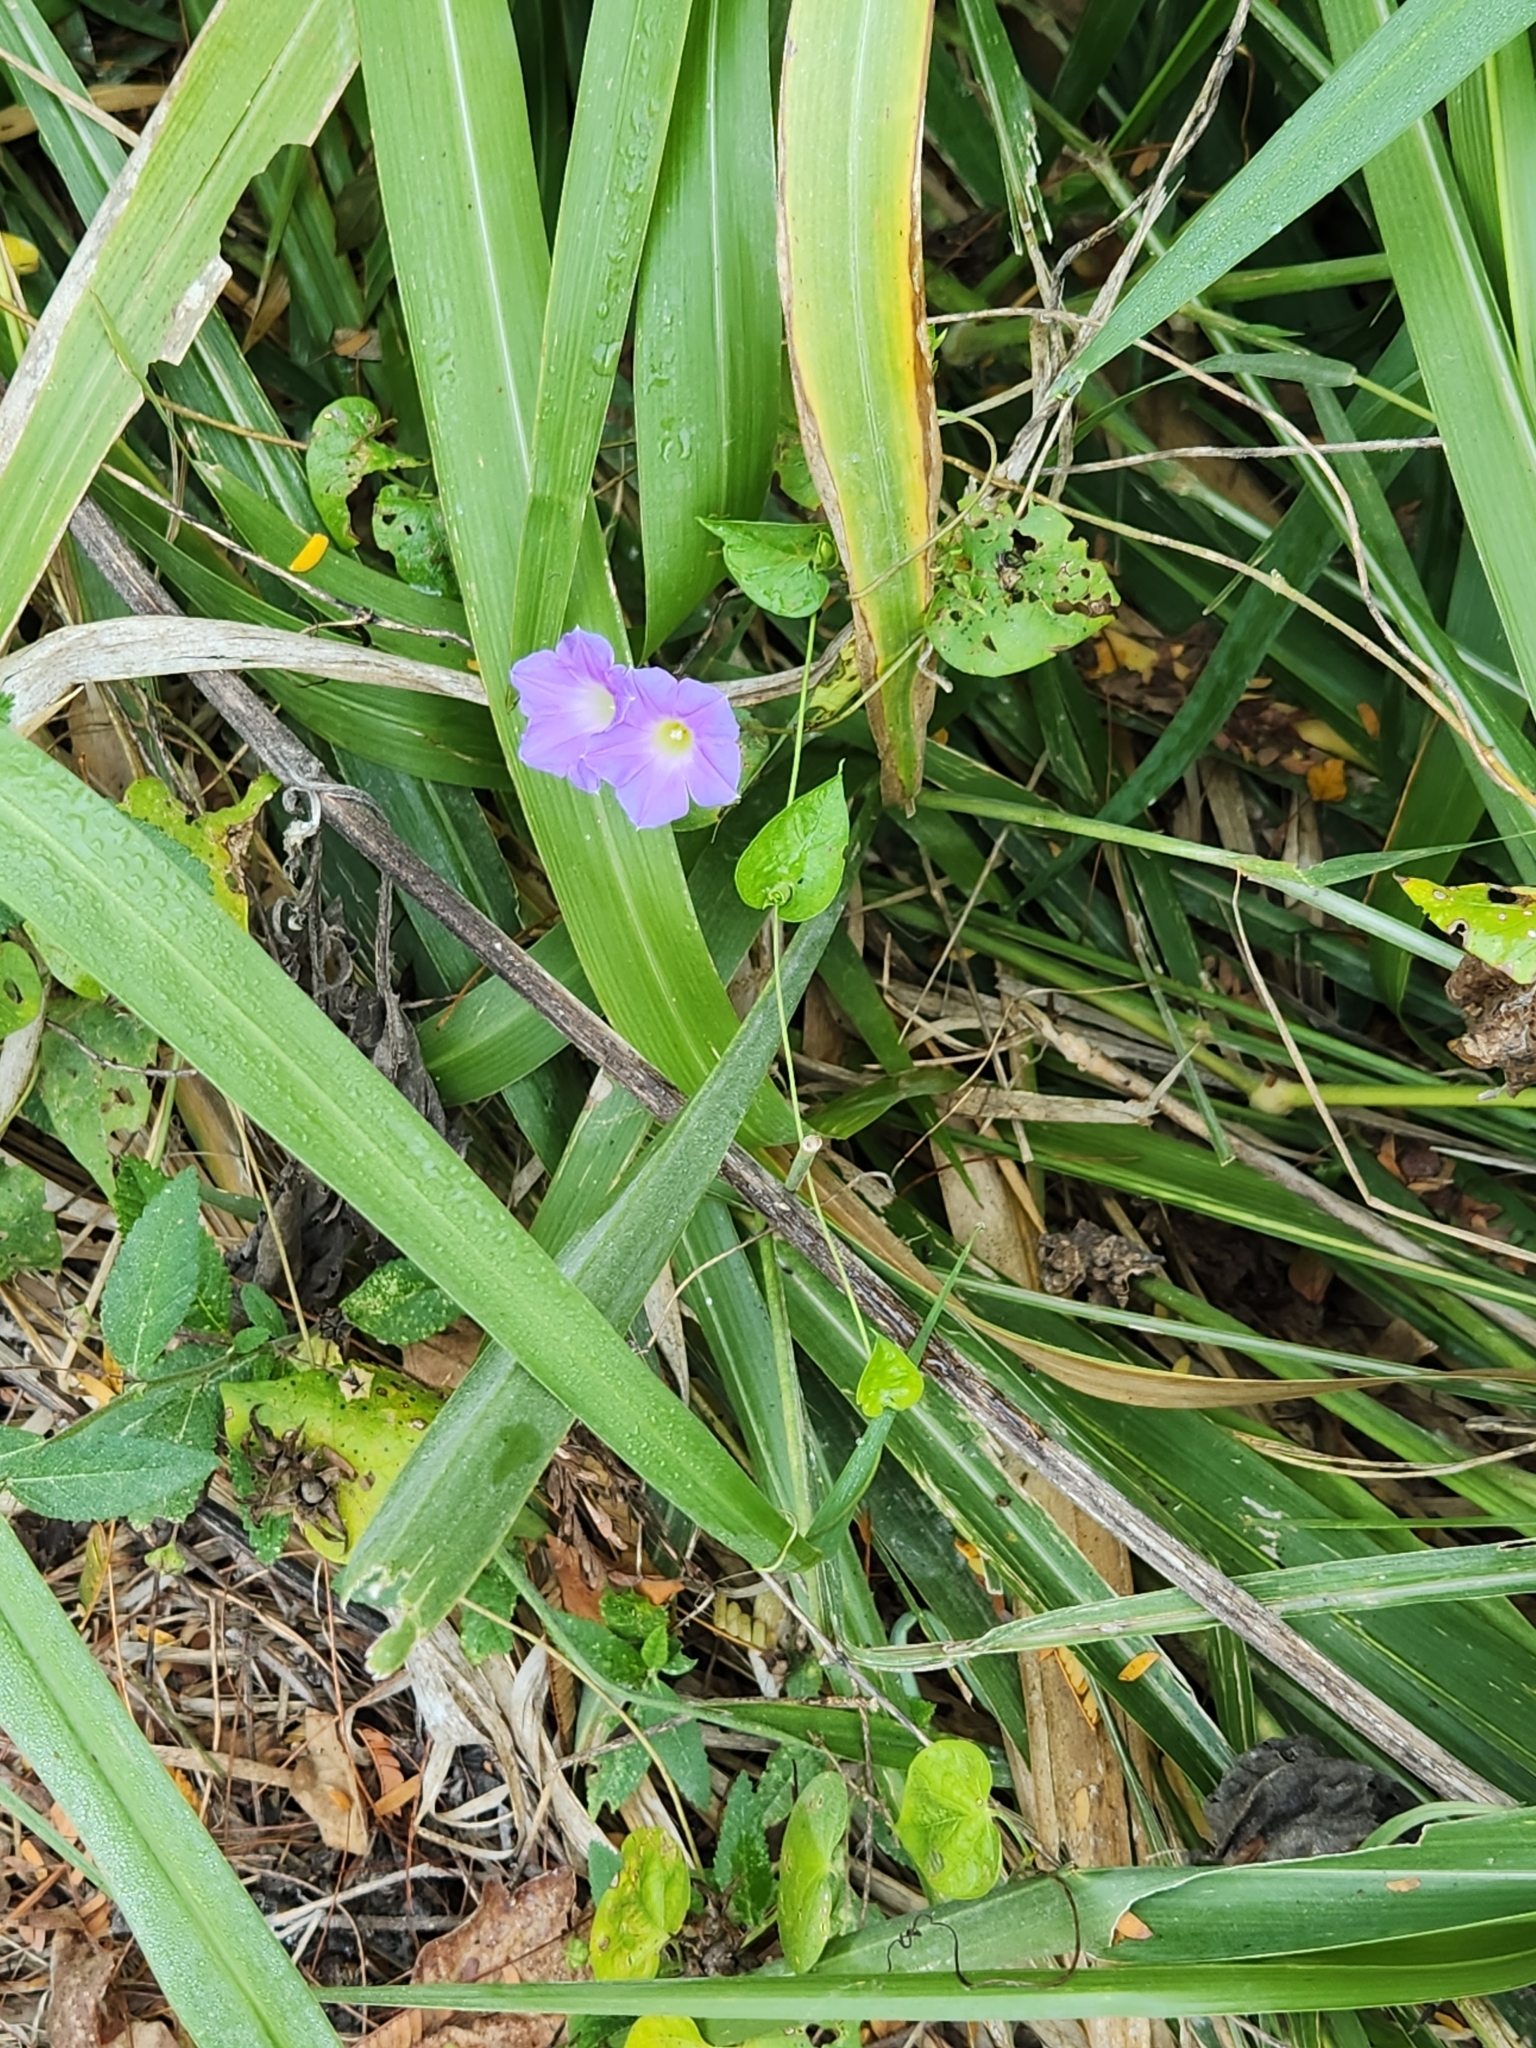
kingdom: Plantae
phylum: Tracheophyta
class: Magnoliopsida
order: Solanales
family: Convolvulaceae
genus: Ipomoea
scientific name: Ipomoea meyeri
